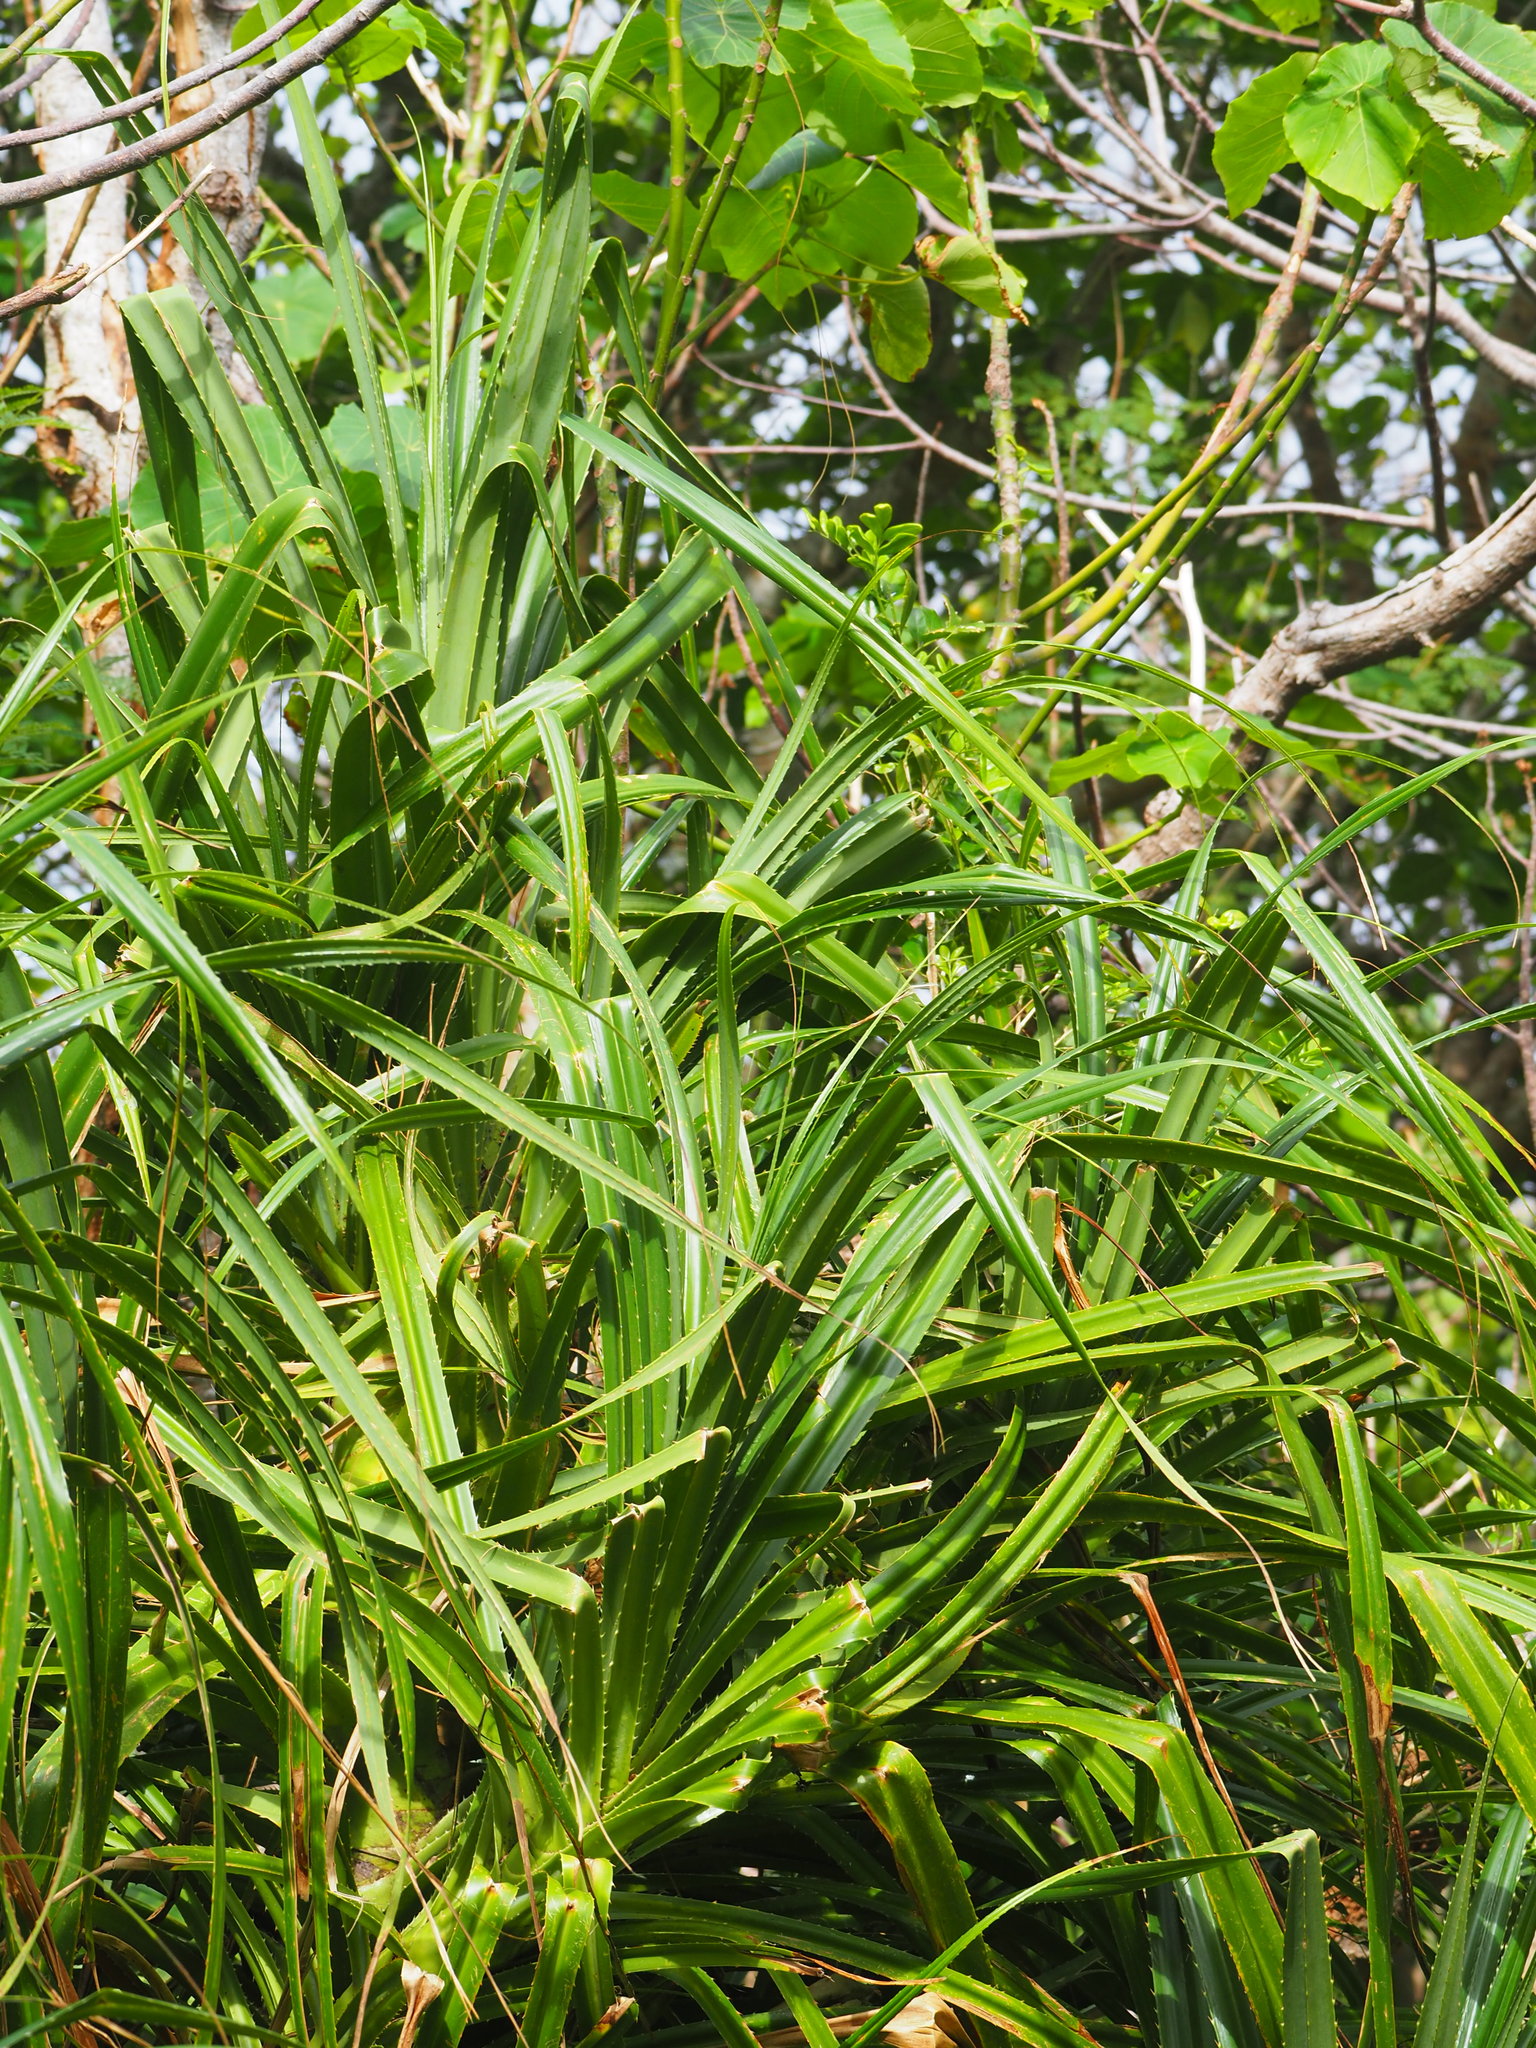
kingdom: Plantae
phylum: Tracheophyta
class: Liliopsida
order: Pandanales
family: Pandanaceae
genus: Pandanus
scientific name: Pandanus odorifer
